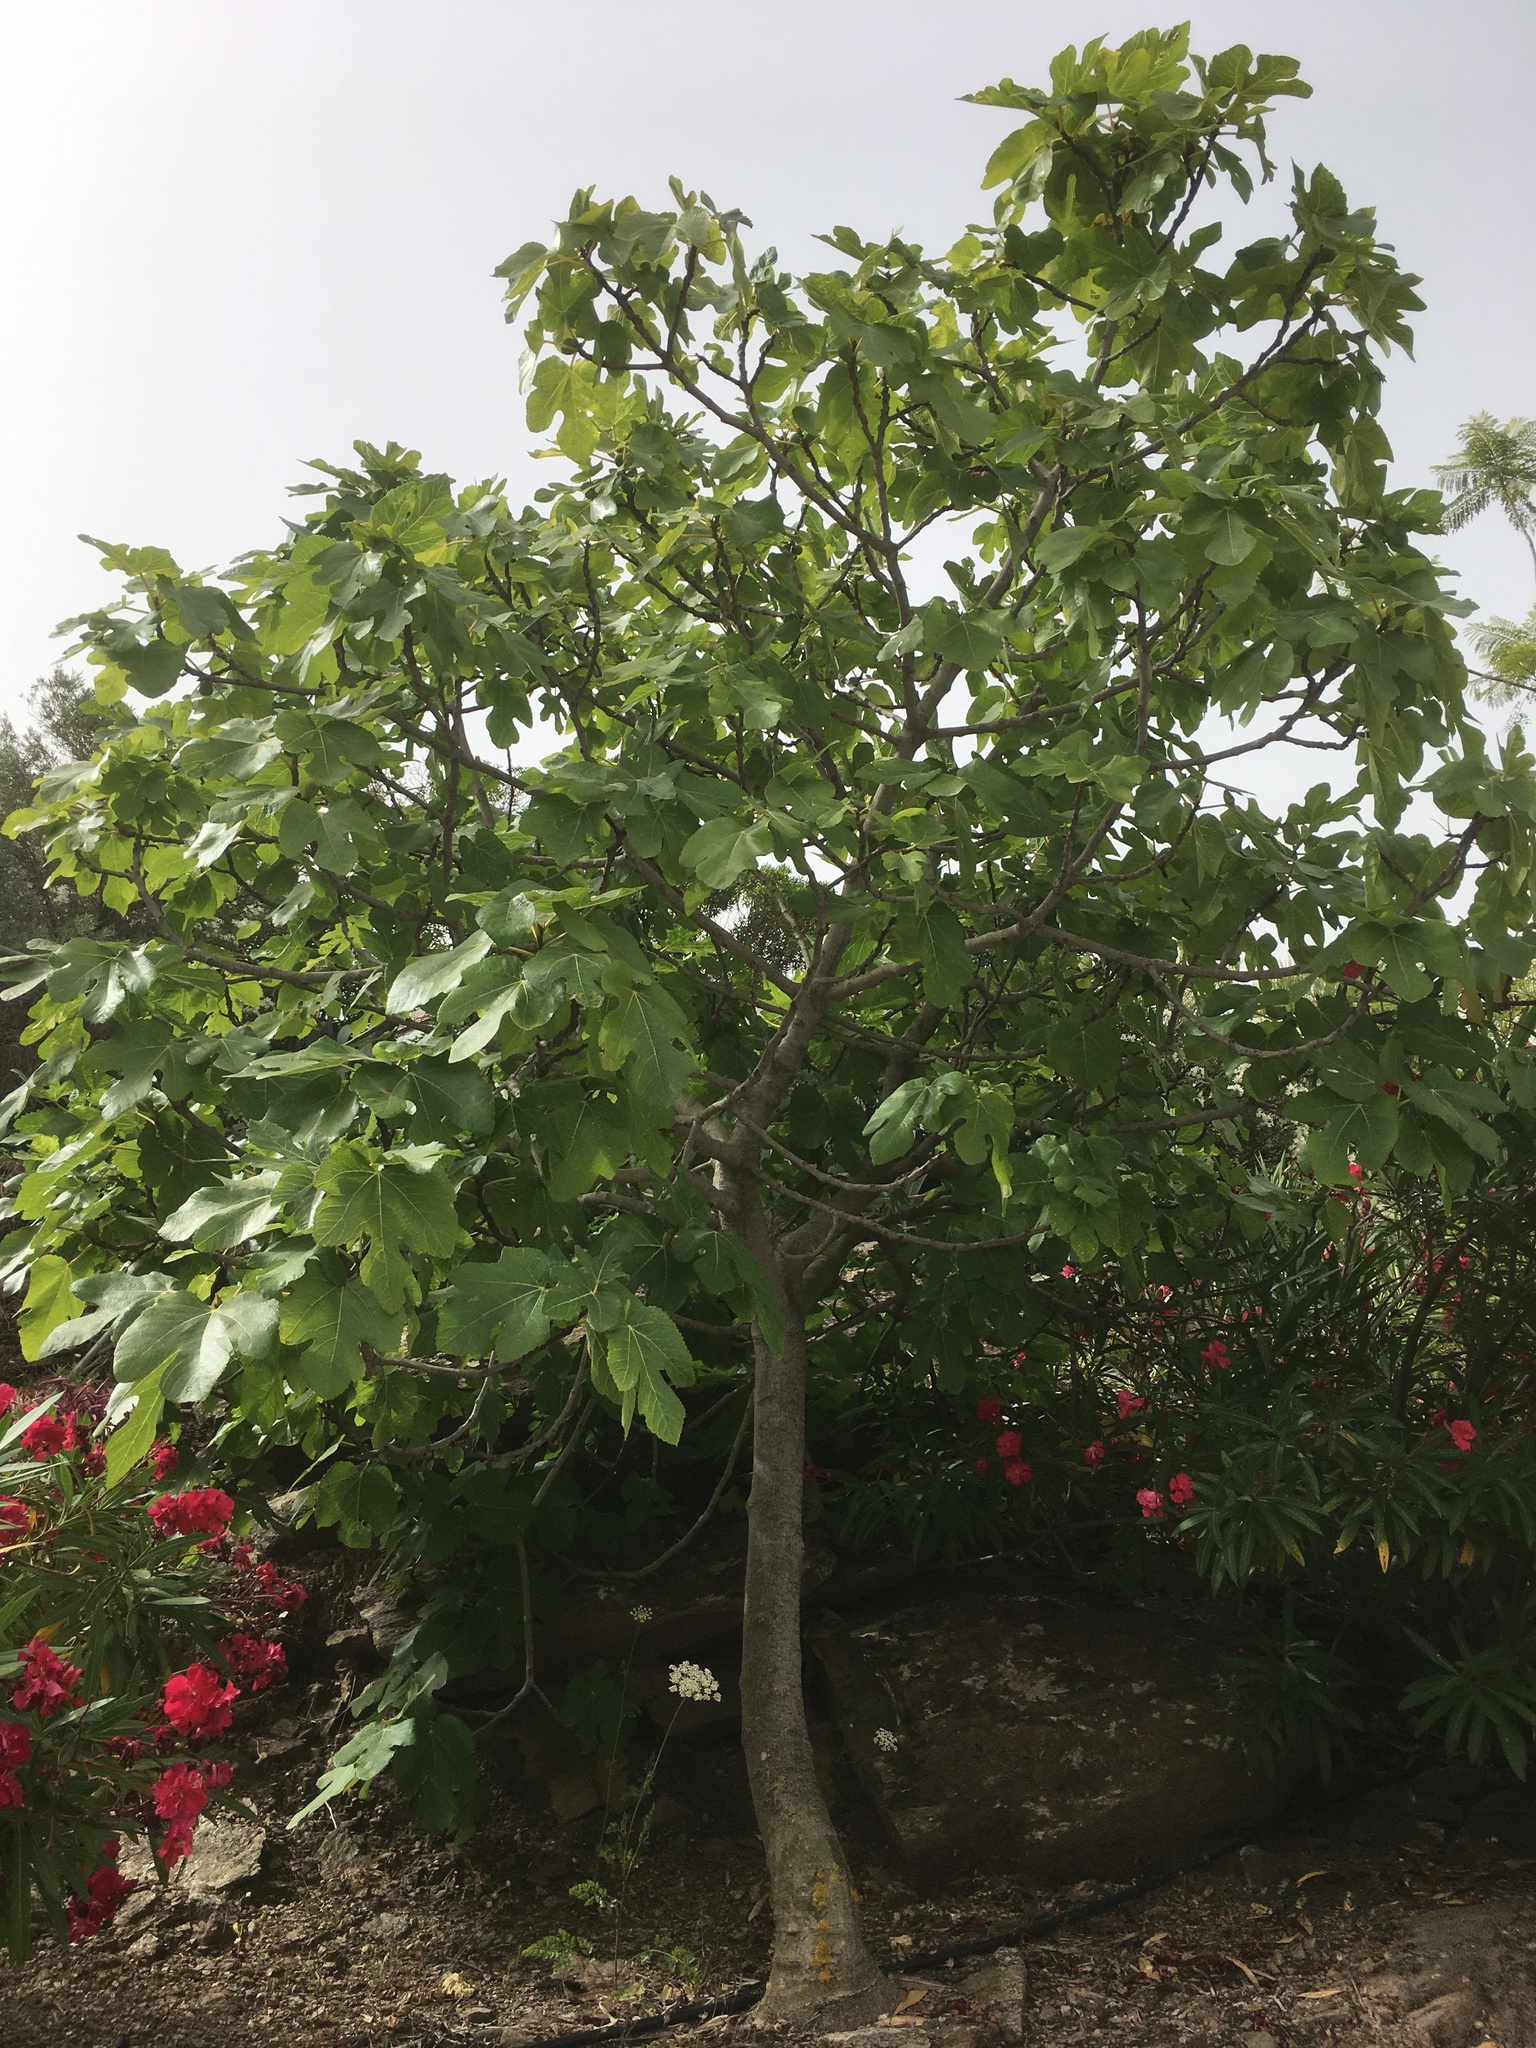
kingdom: Plantae
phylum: Tracheophyta
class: Magnoliopsida
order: Rosales
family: Moraceae
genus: Ficus
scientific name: Ficus carica
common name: Fig
